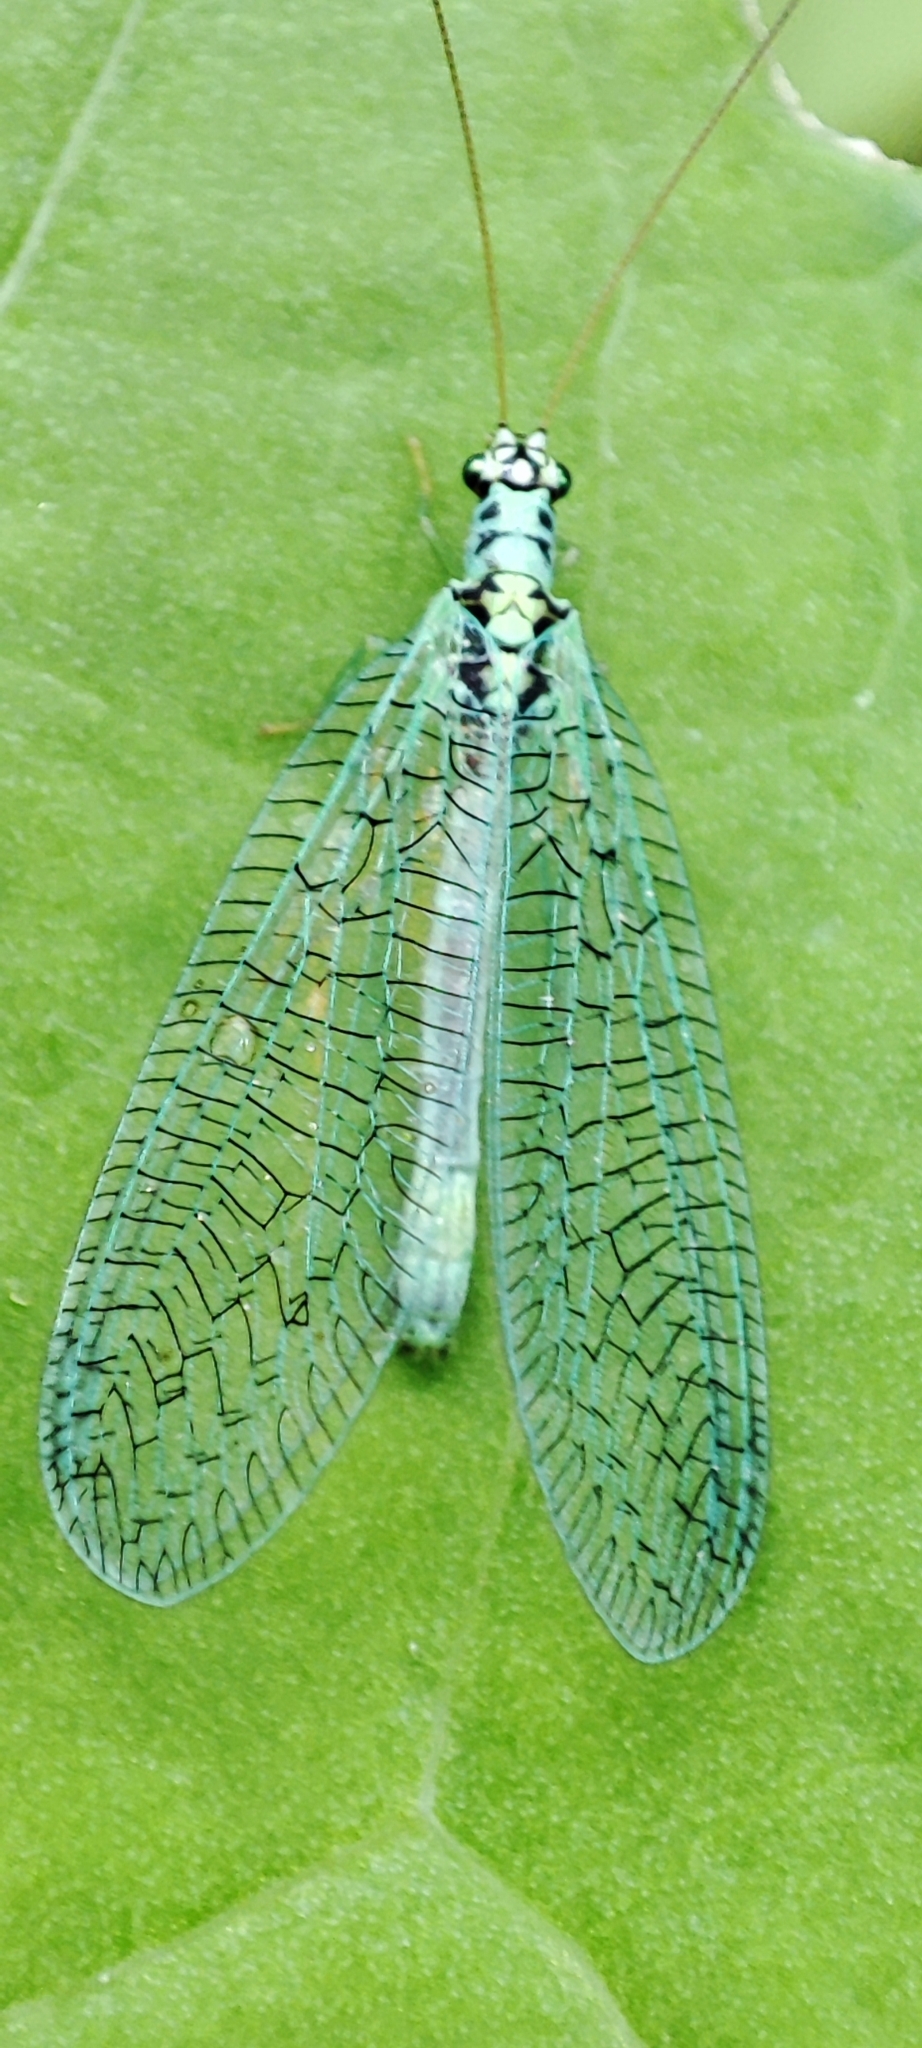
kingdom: Animalia
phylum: Arthropoda
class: Insecta
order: Neuroptera
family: Chrysopidae
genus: Chrysopa
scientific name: Chrysopa perla
